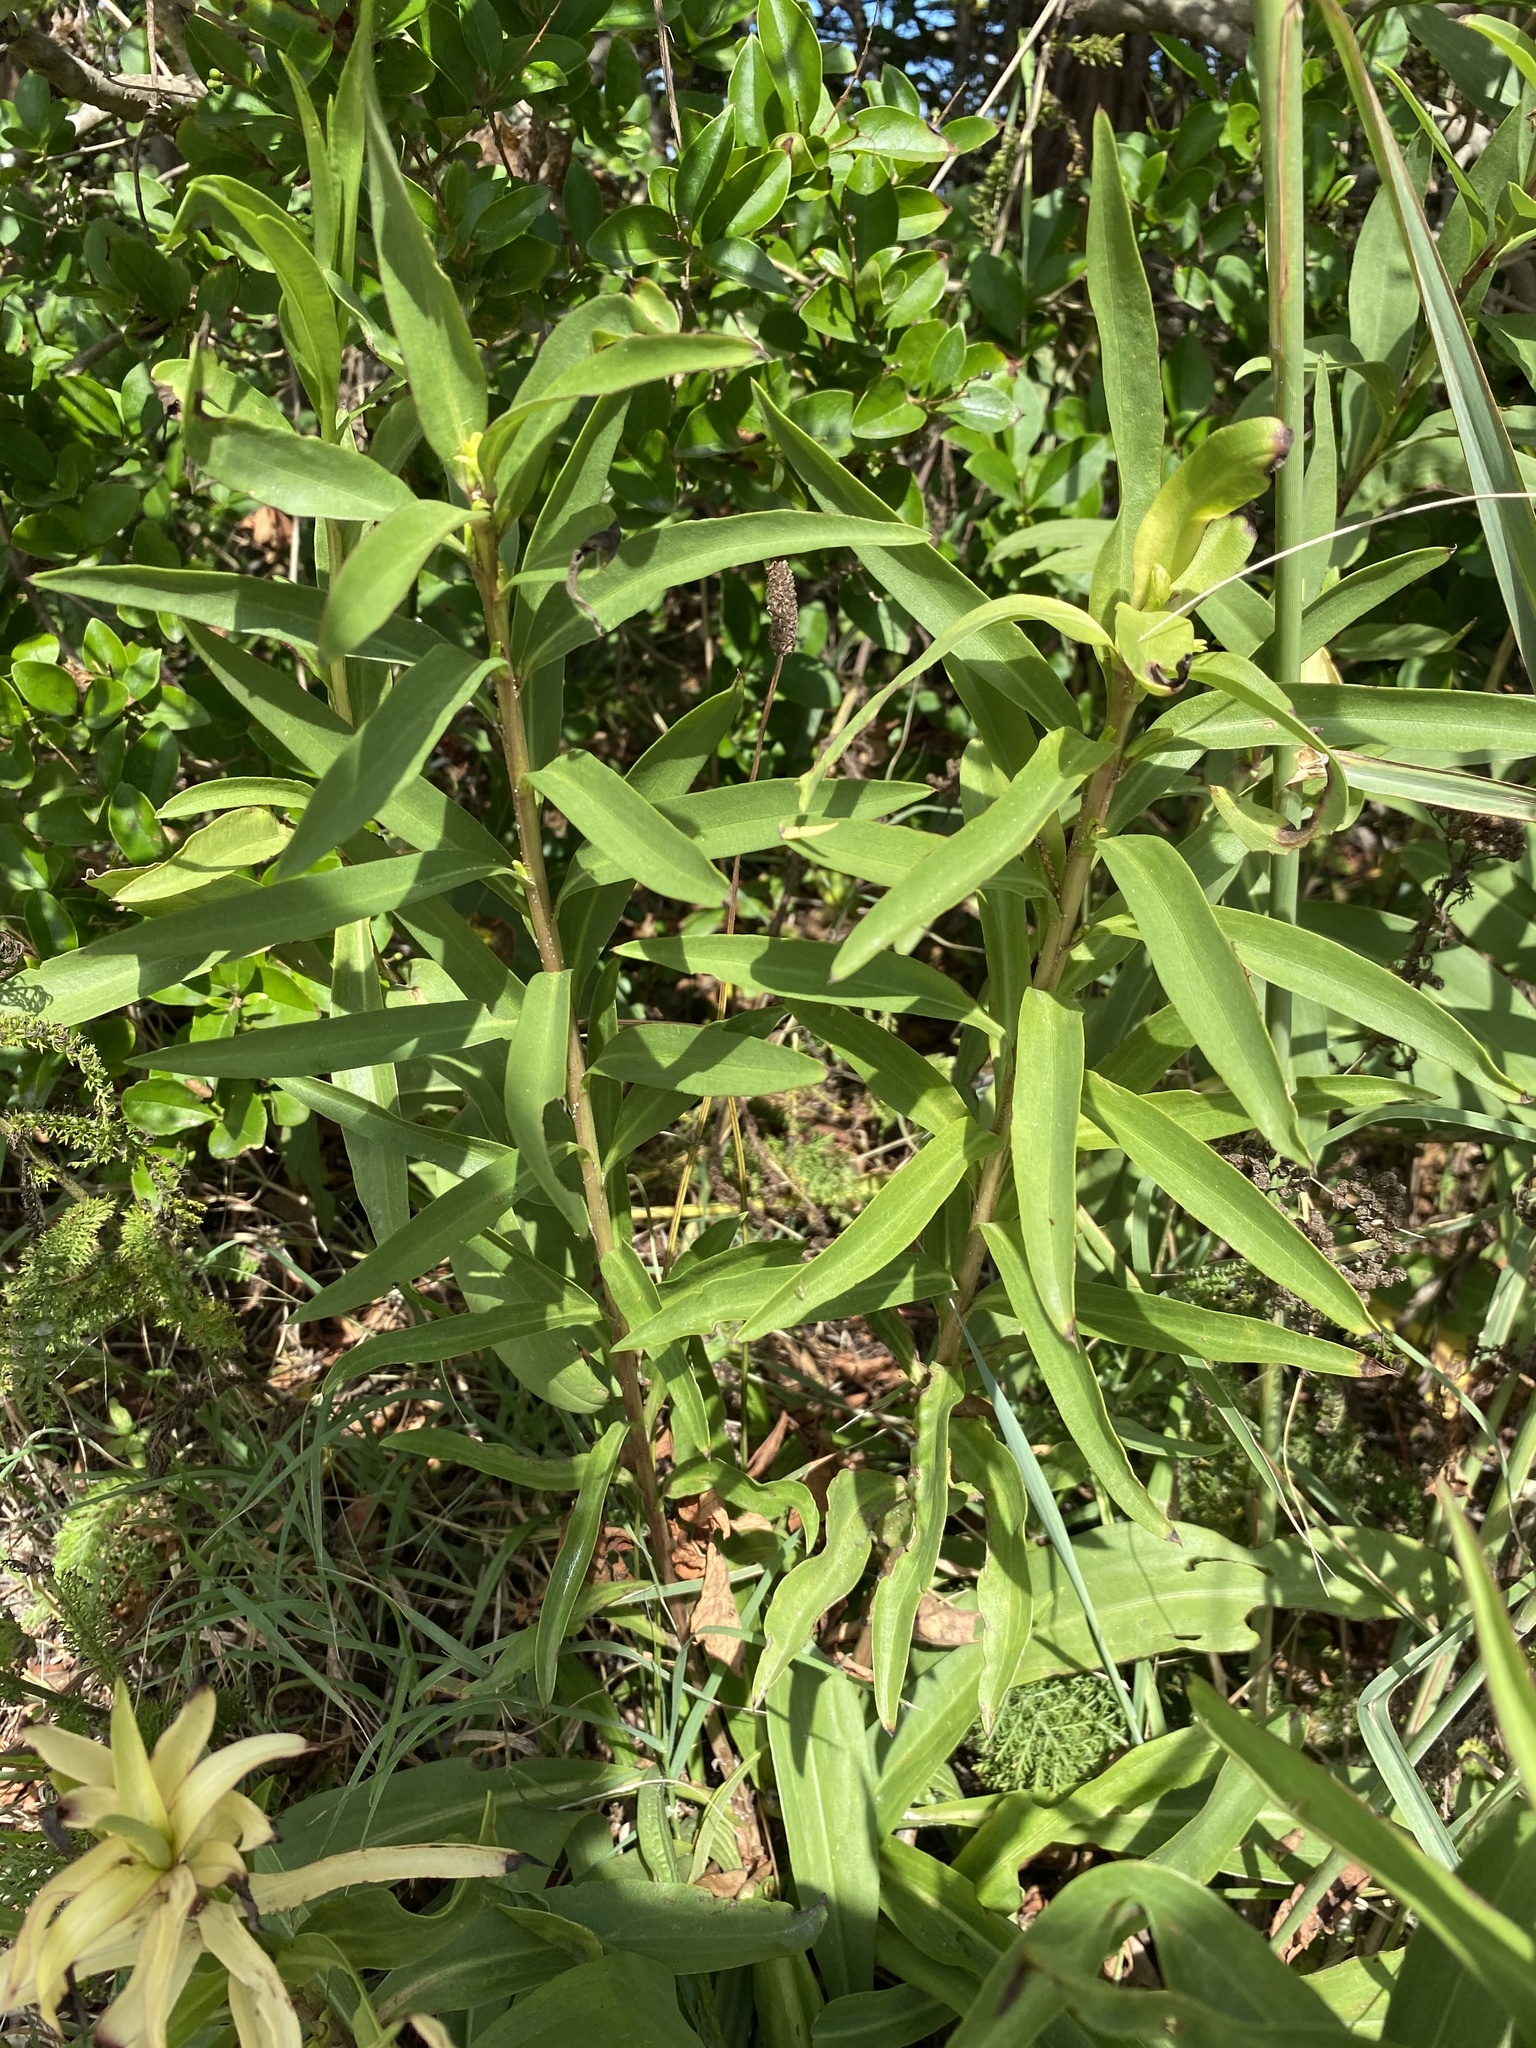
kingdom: Plantae
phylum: Tracheophyta
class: Magnoliopsida
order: Asterales
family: Asteraceae
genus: Solidago
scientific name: Solidago sempervirens
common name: Salt-marsh goldenrod
